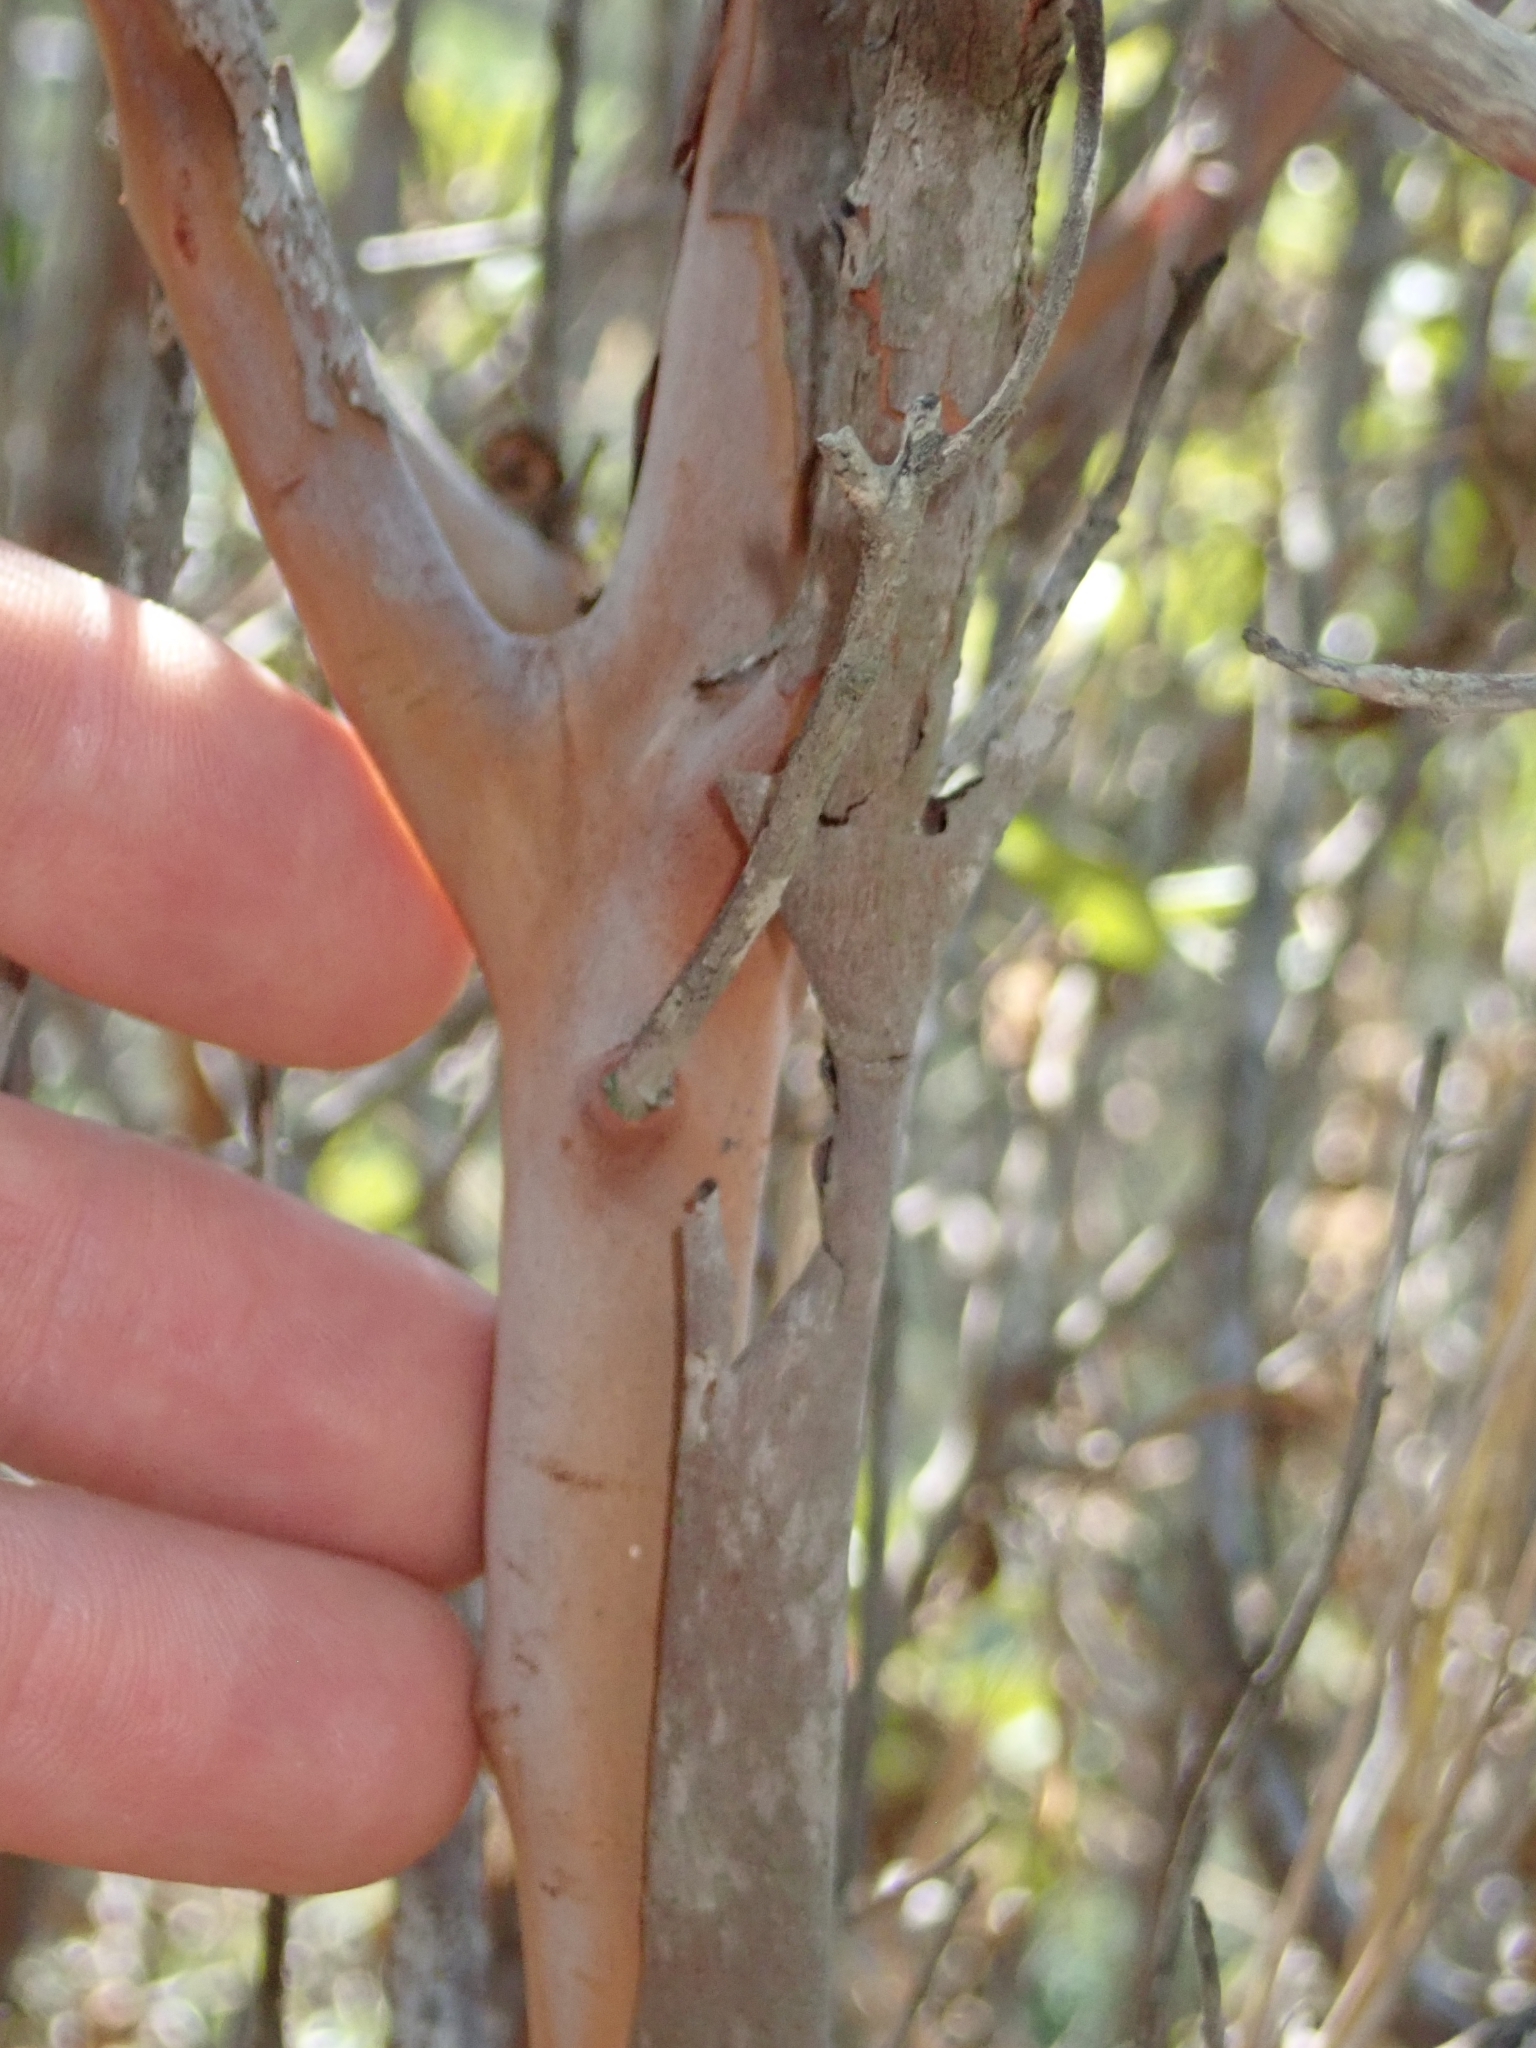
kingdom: Plantae
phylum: Tracheophyta
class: Magnoliopsida
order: Ericales
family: Ericaceae
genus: Arctostaphylos
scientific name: Arctostaphylos bicolor
